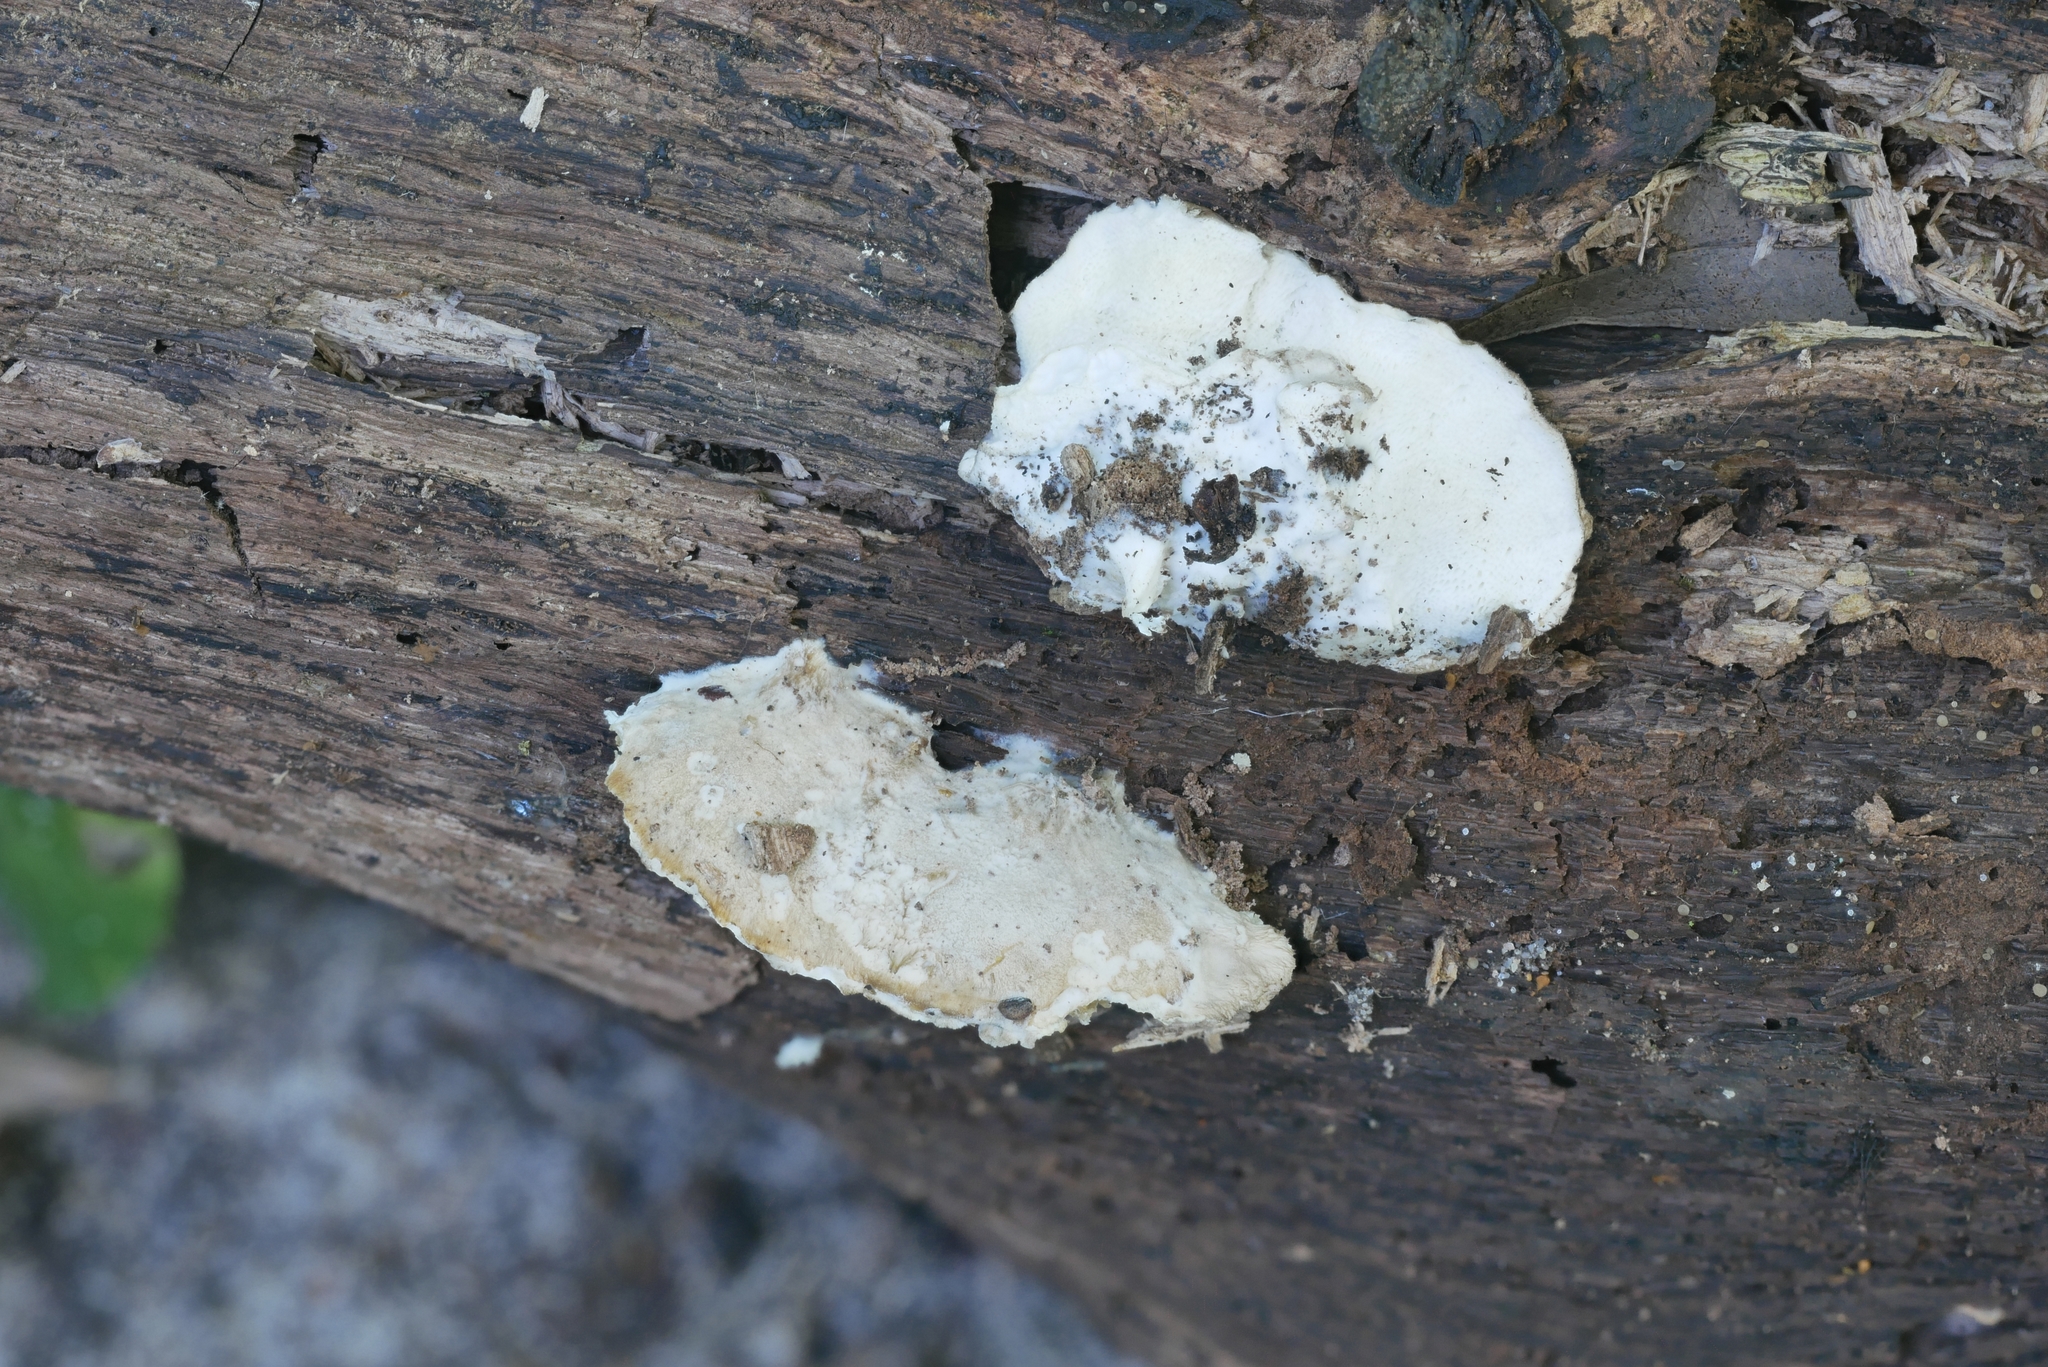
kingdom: Fungi
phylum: Basidiomycota
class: Agaricomycetes
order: Polyporales
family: Incrustoporiaceae
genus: Tyromyces
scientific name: Tyromyces galactinus
